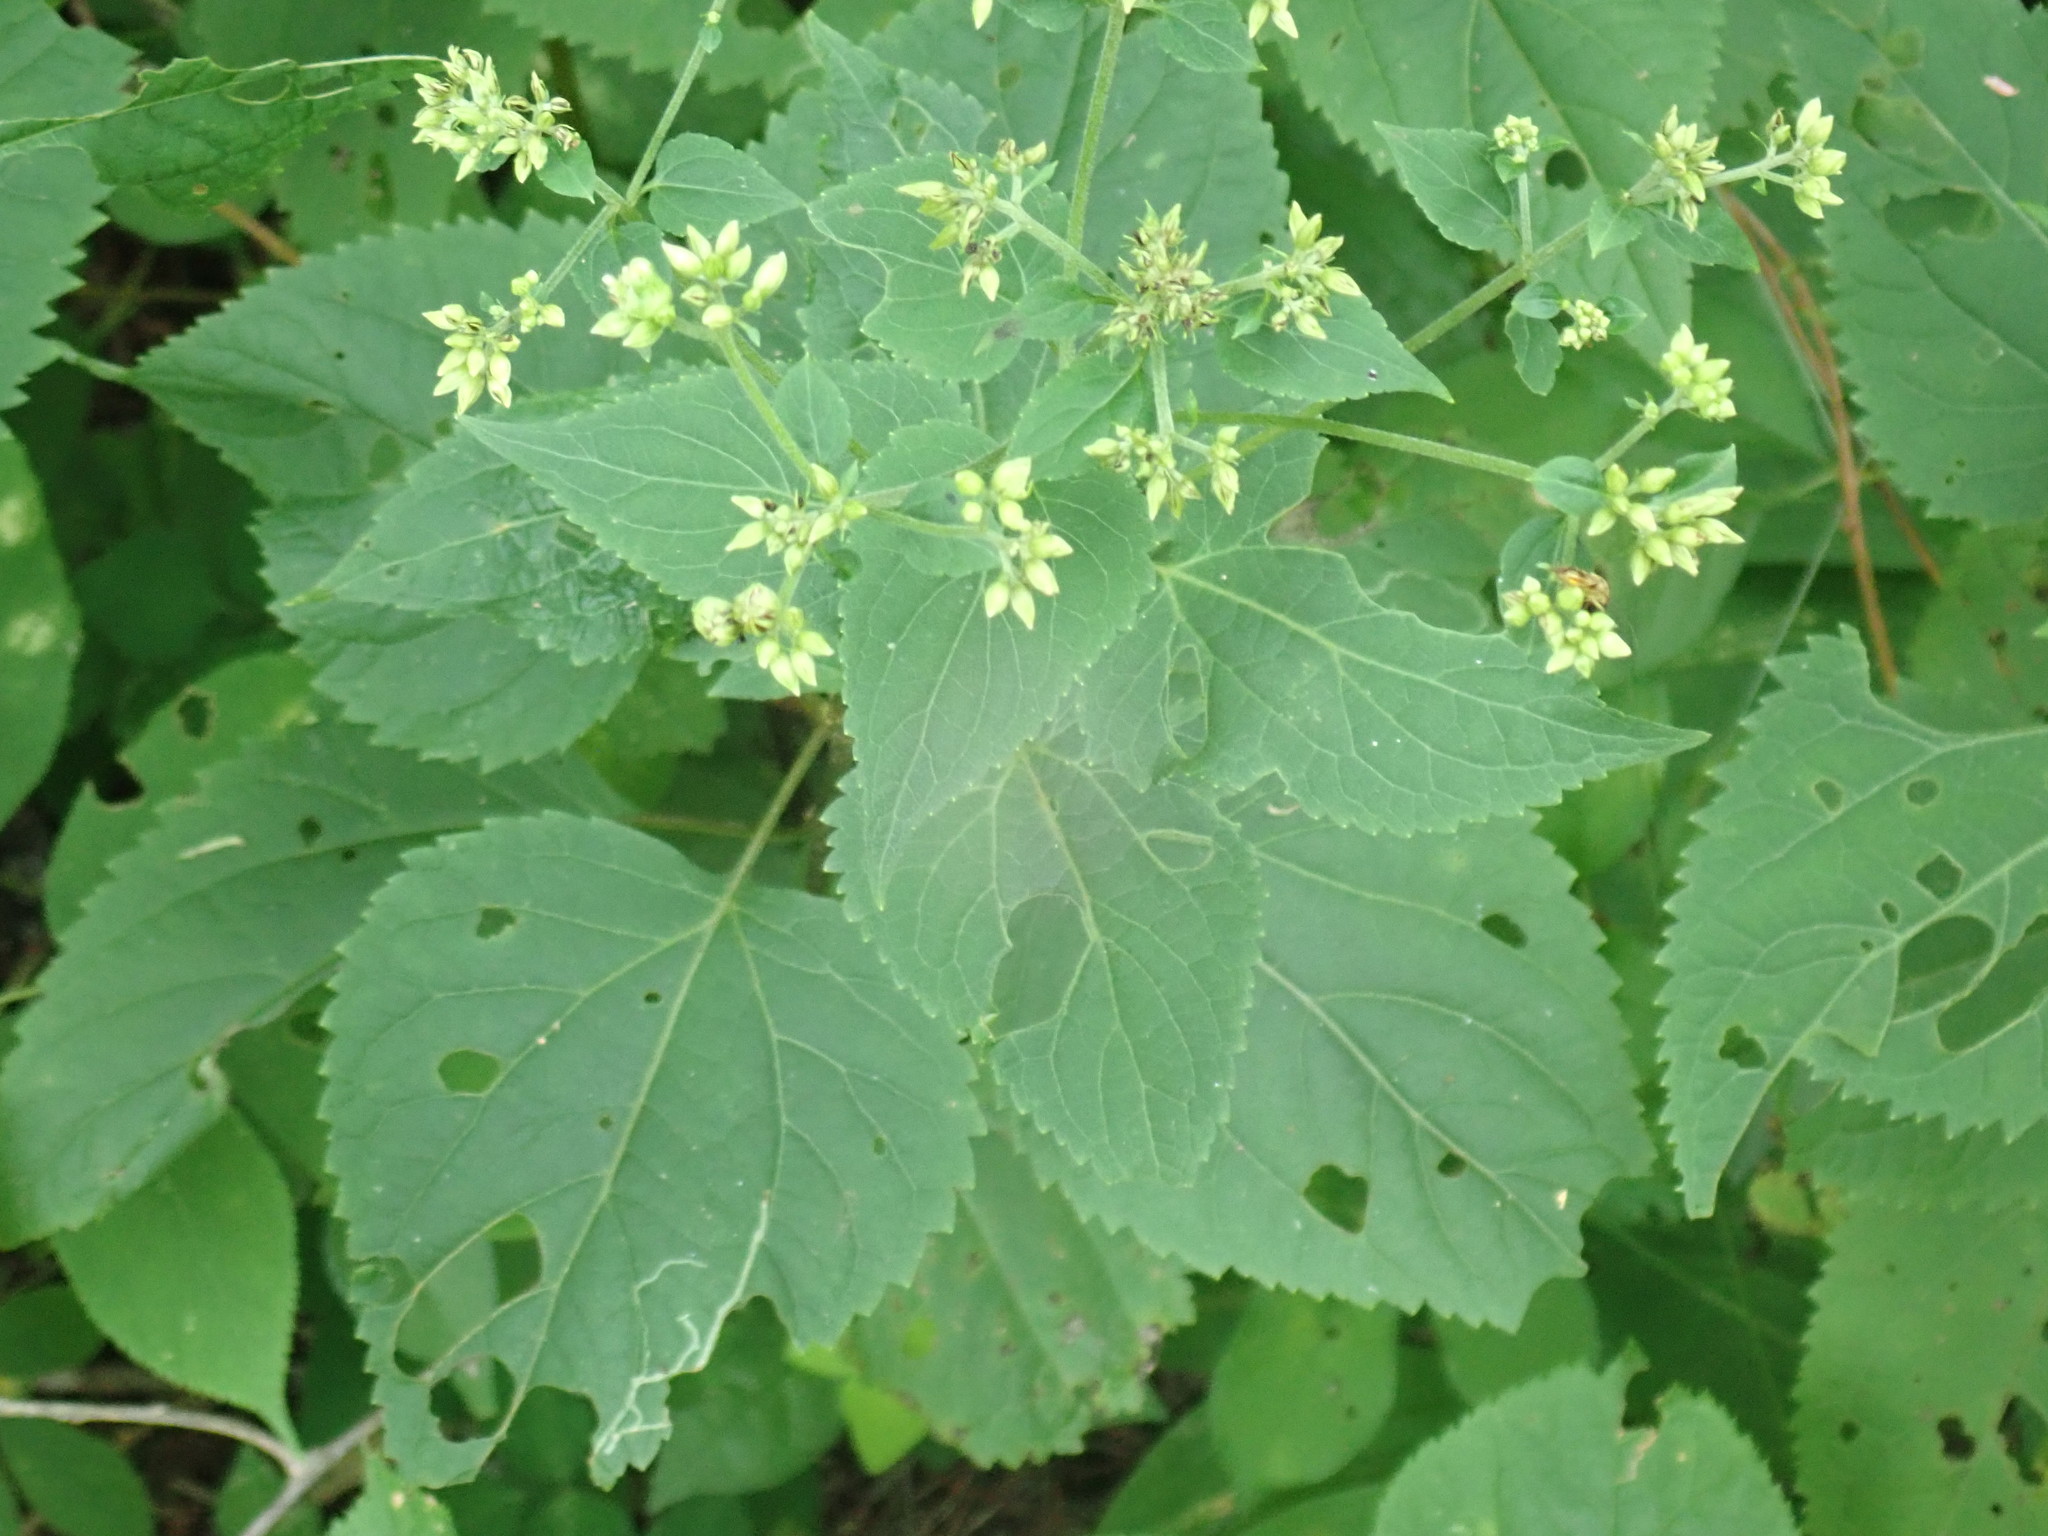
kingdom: Plantae
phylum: Tracheophyta
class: Magnoliopsida
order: Asterales
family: Asteraceae
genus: Ageratina
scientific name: Ageratina altissima
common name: White snakeroot
